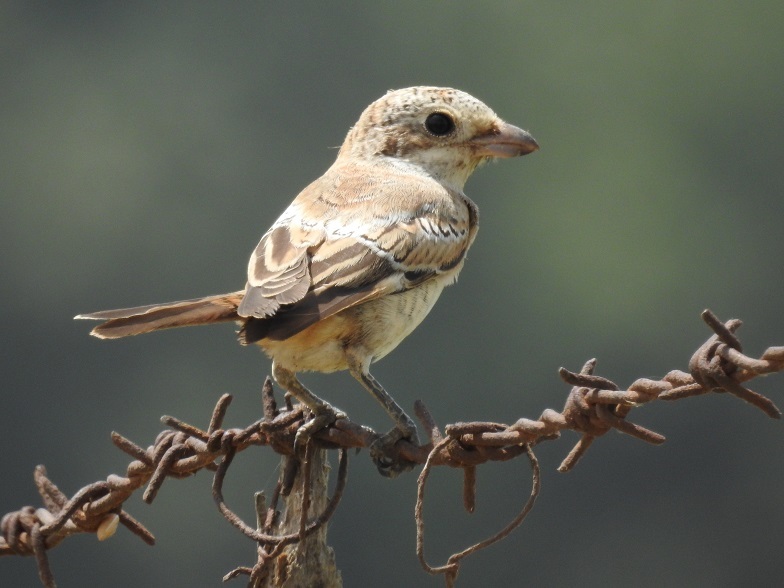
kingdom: Animalia
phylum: Chordata
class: Aves
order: Passeriformes
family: Laniidae
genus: Lanius
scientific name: Lanius senator
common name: Woodchat shrike
